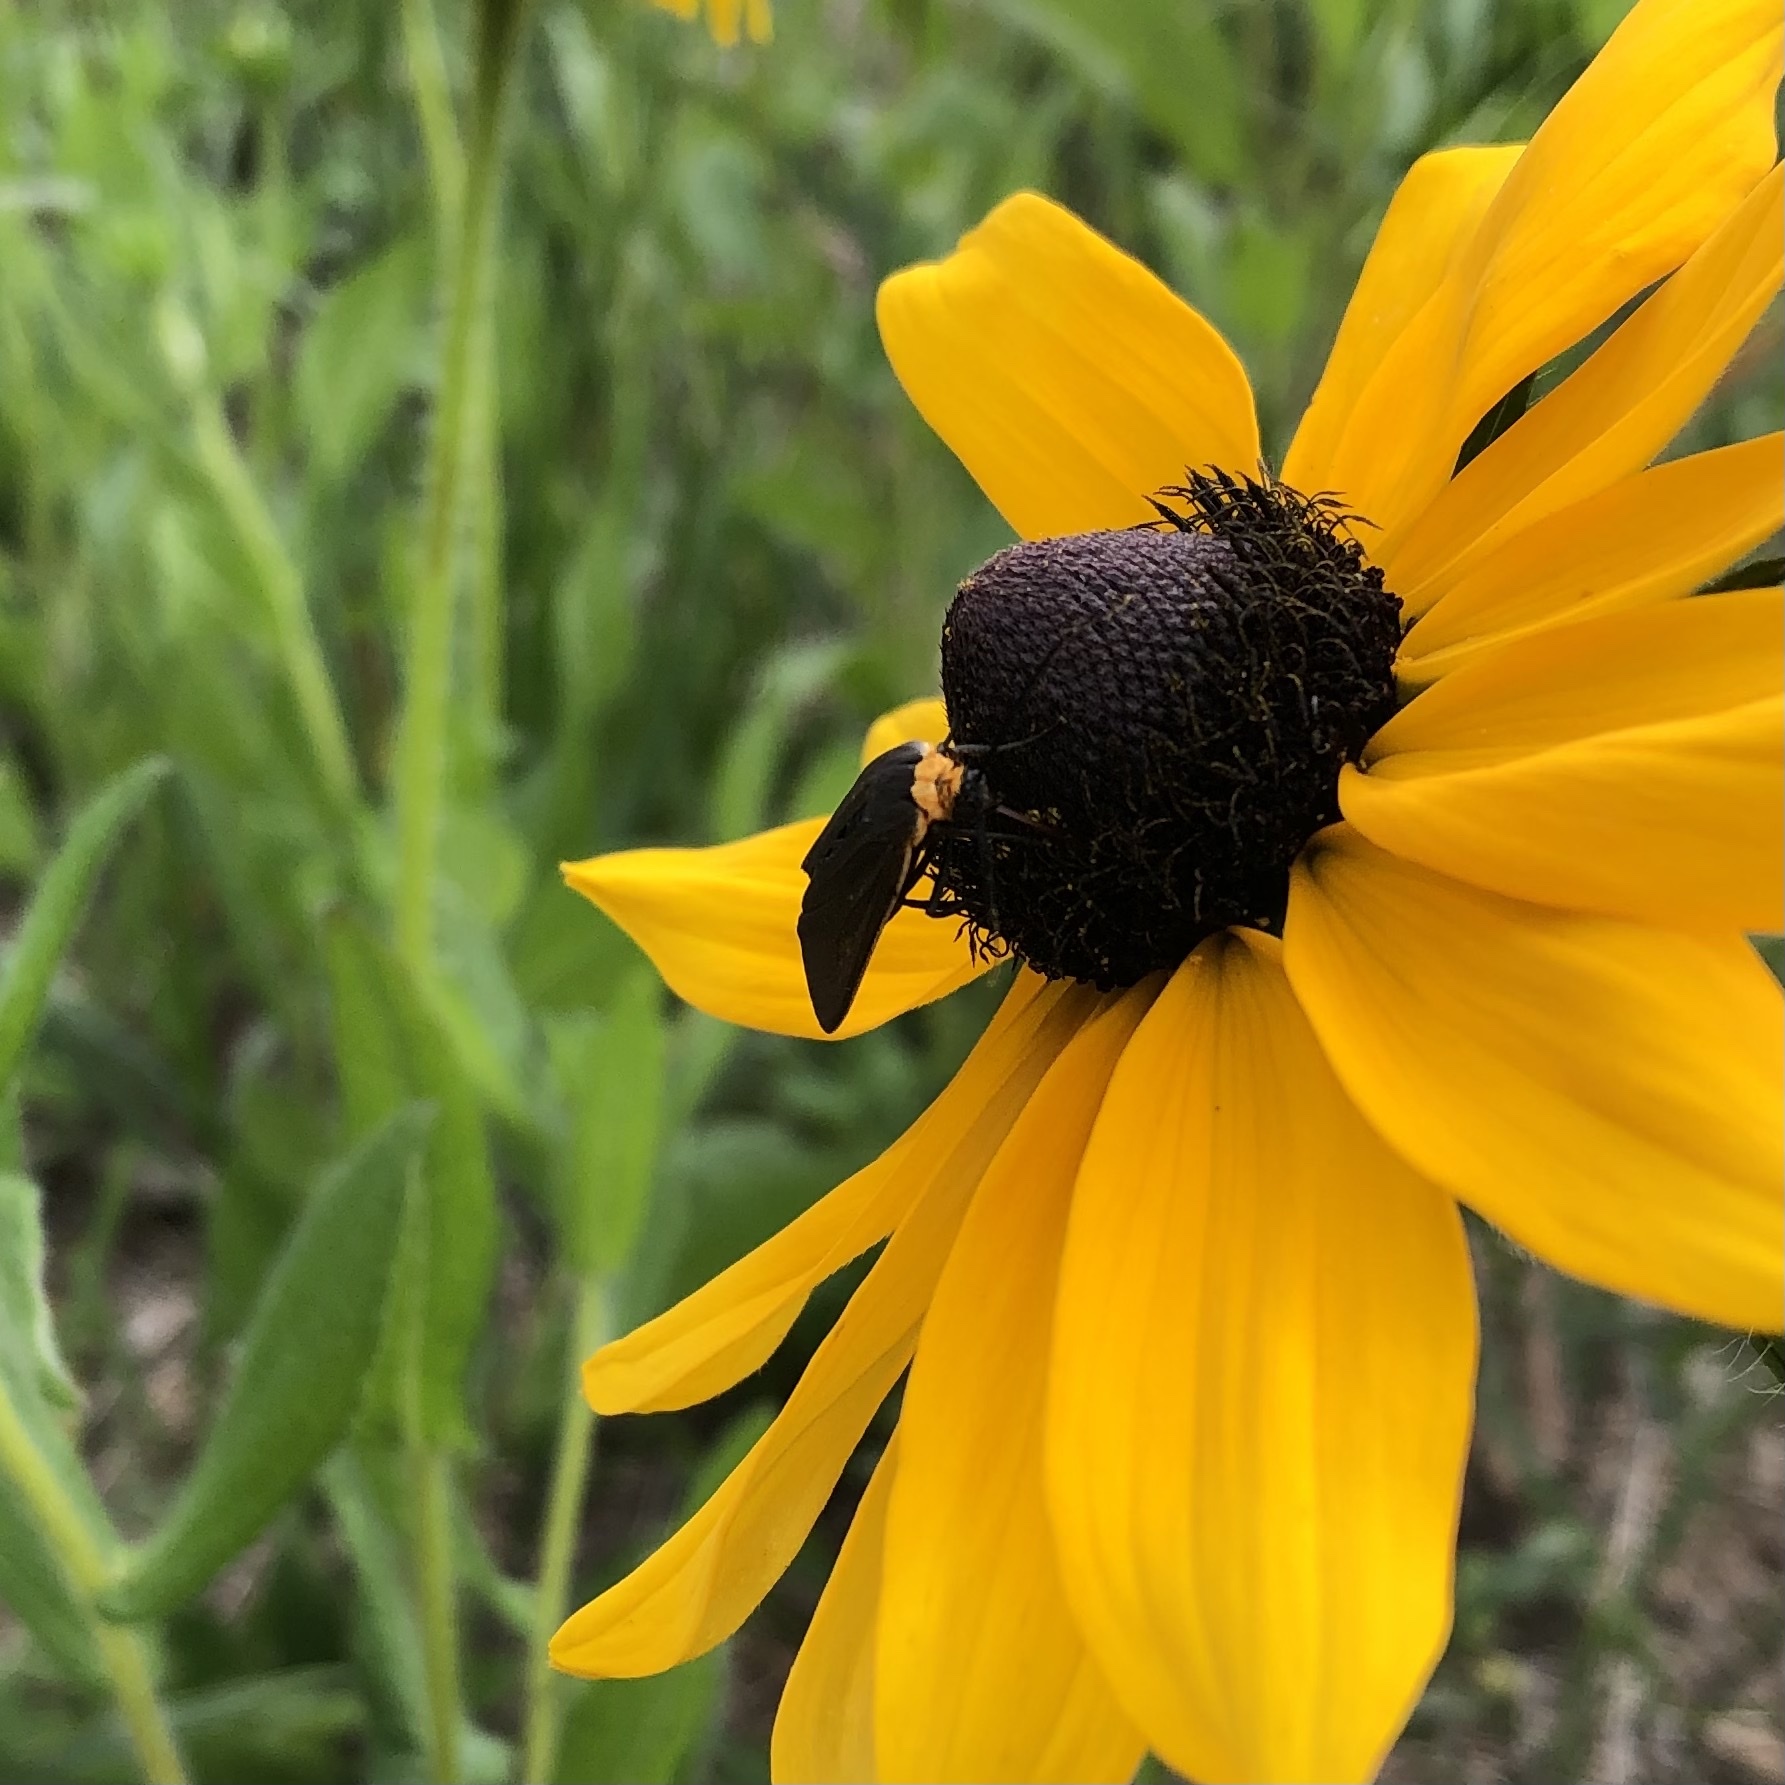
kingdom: Animalia
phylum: Arthropoda
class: Insecta
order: Lepidoptera
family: Erebidae
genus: Cisseps
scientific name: Cisseps fulvicollis
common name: Yellow-collared scape moth
